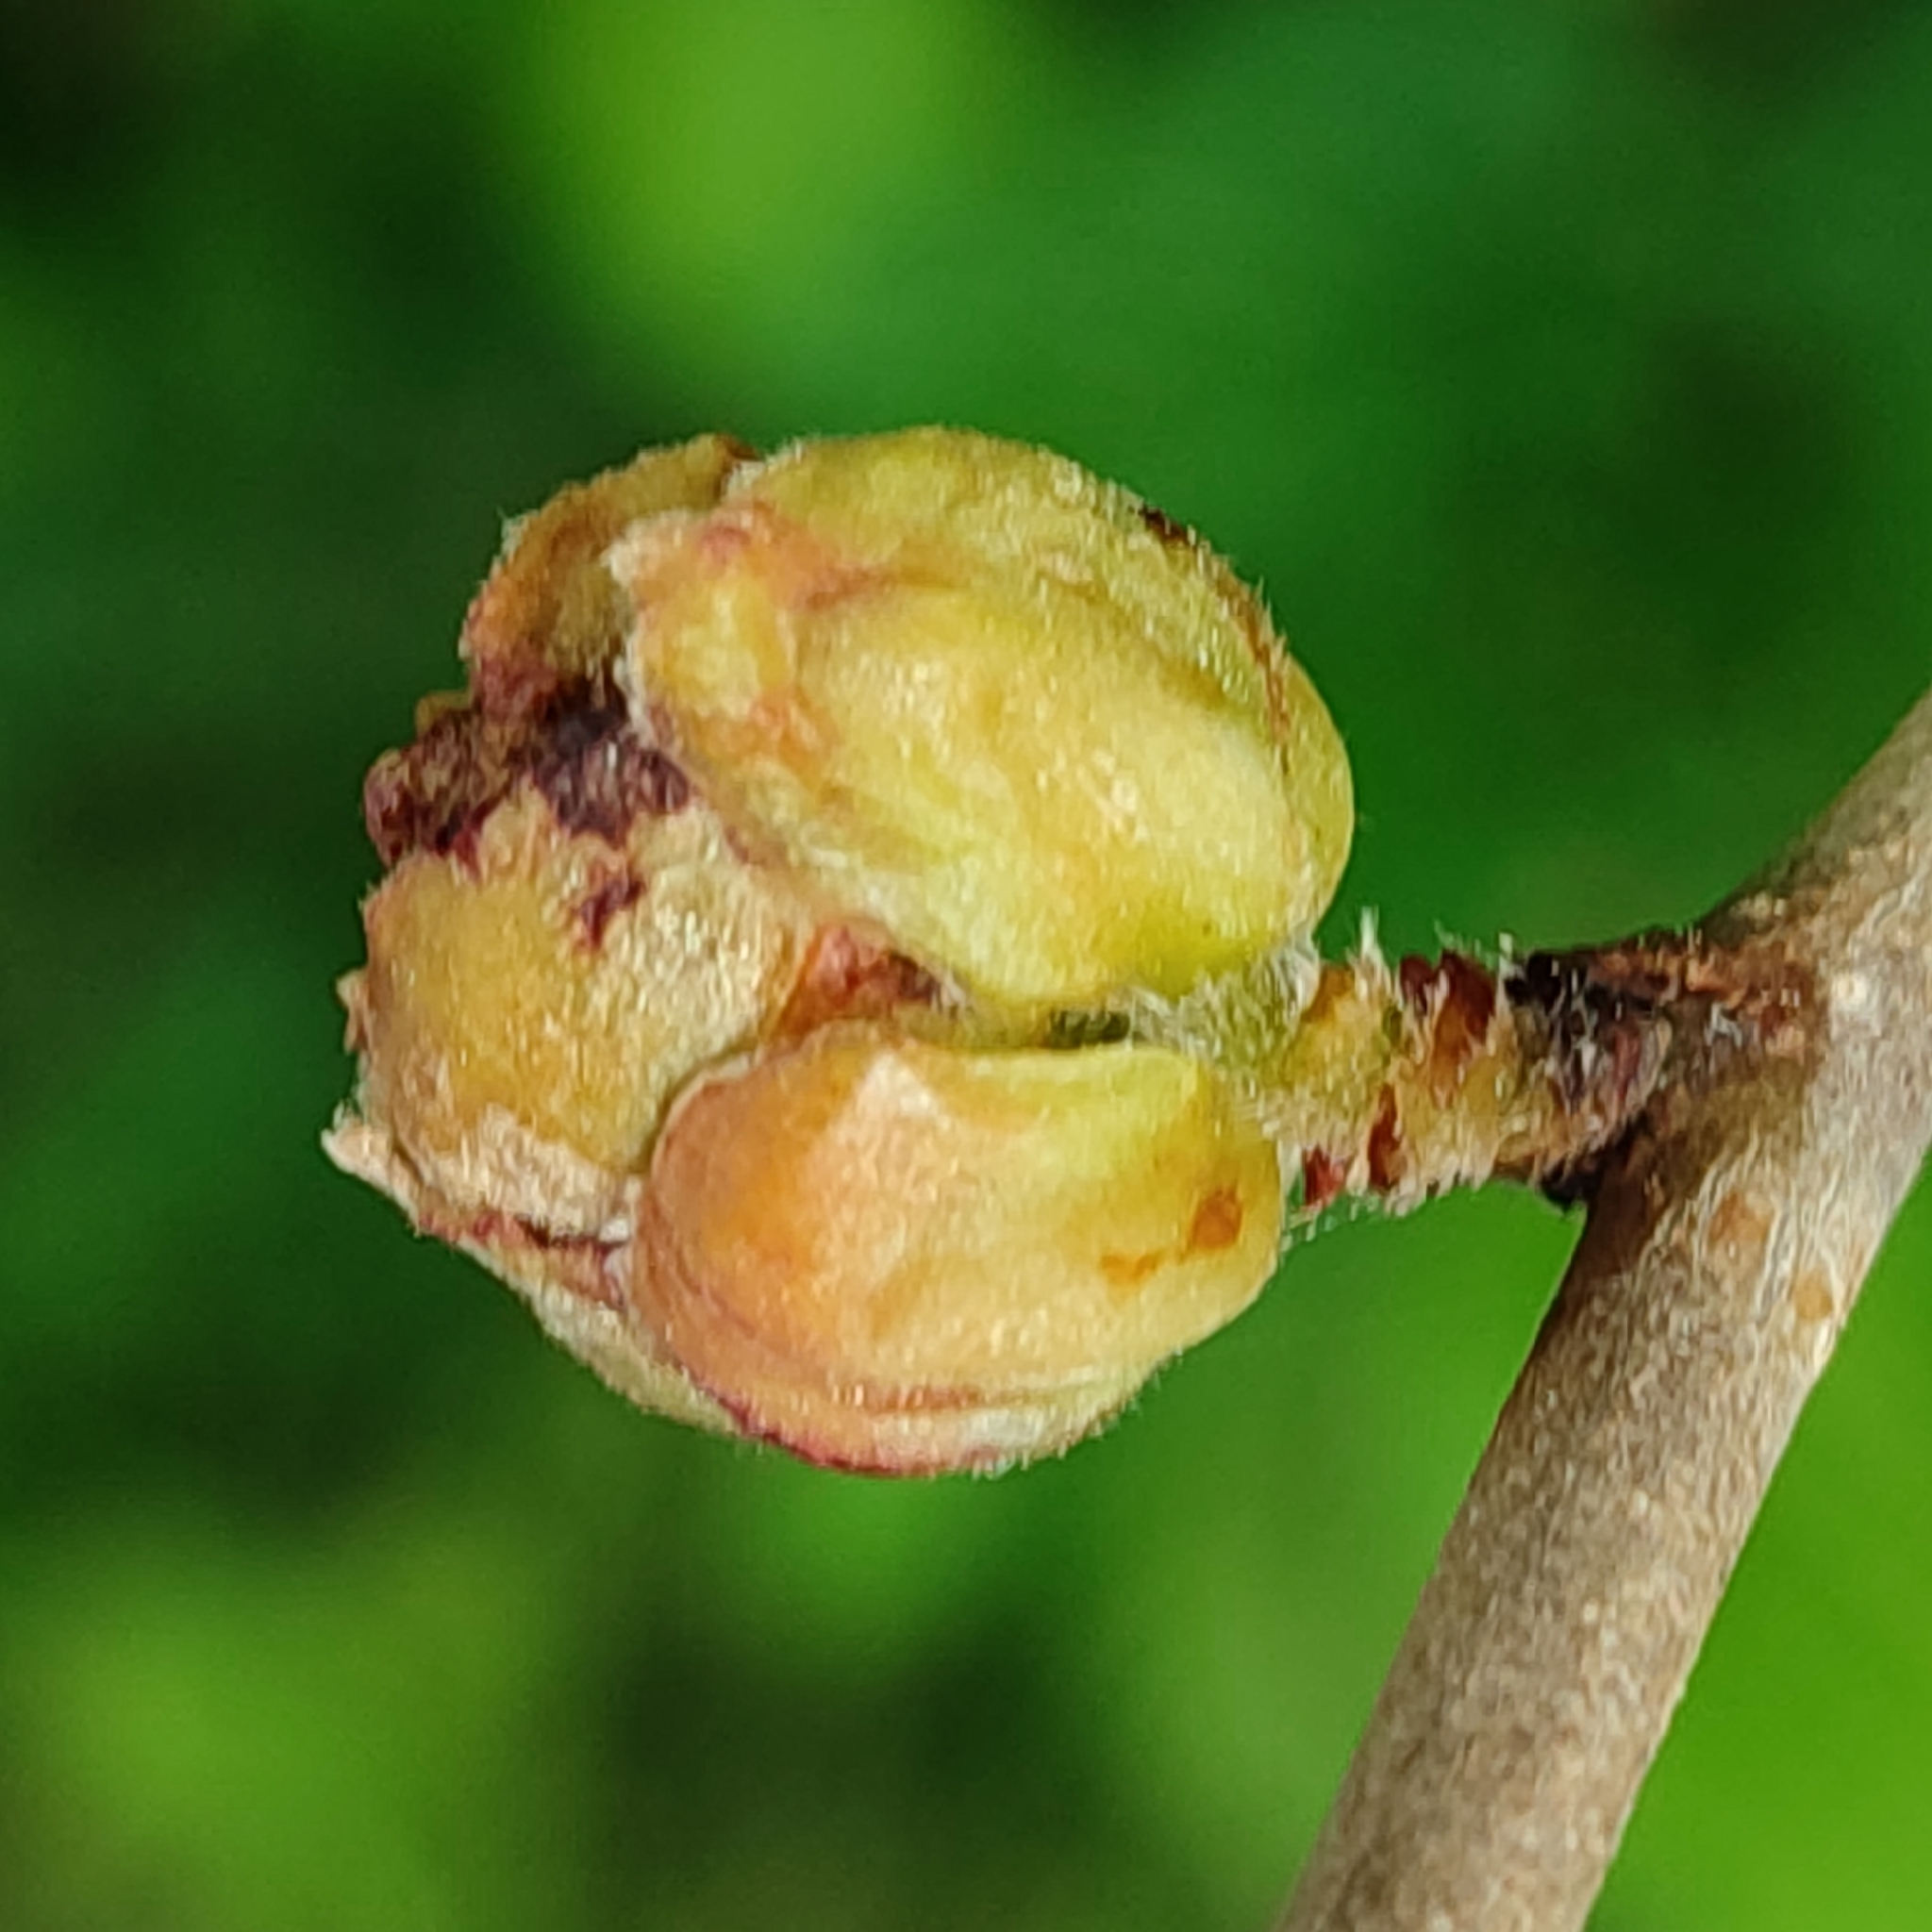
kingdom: Animalia
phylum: Arthropoda
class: Arachnida
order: Trombidiformes
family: Phytoptidae
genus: Phytoptus
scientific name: Phytoptus avellanae
